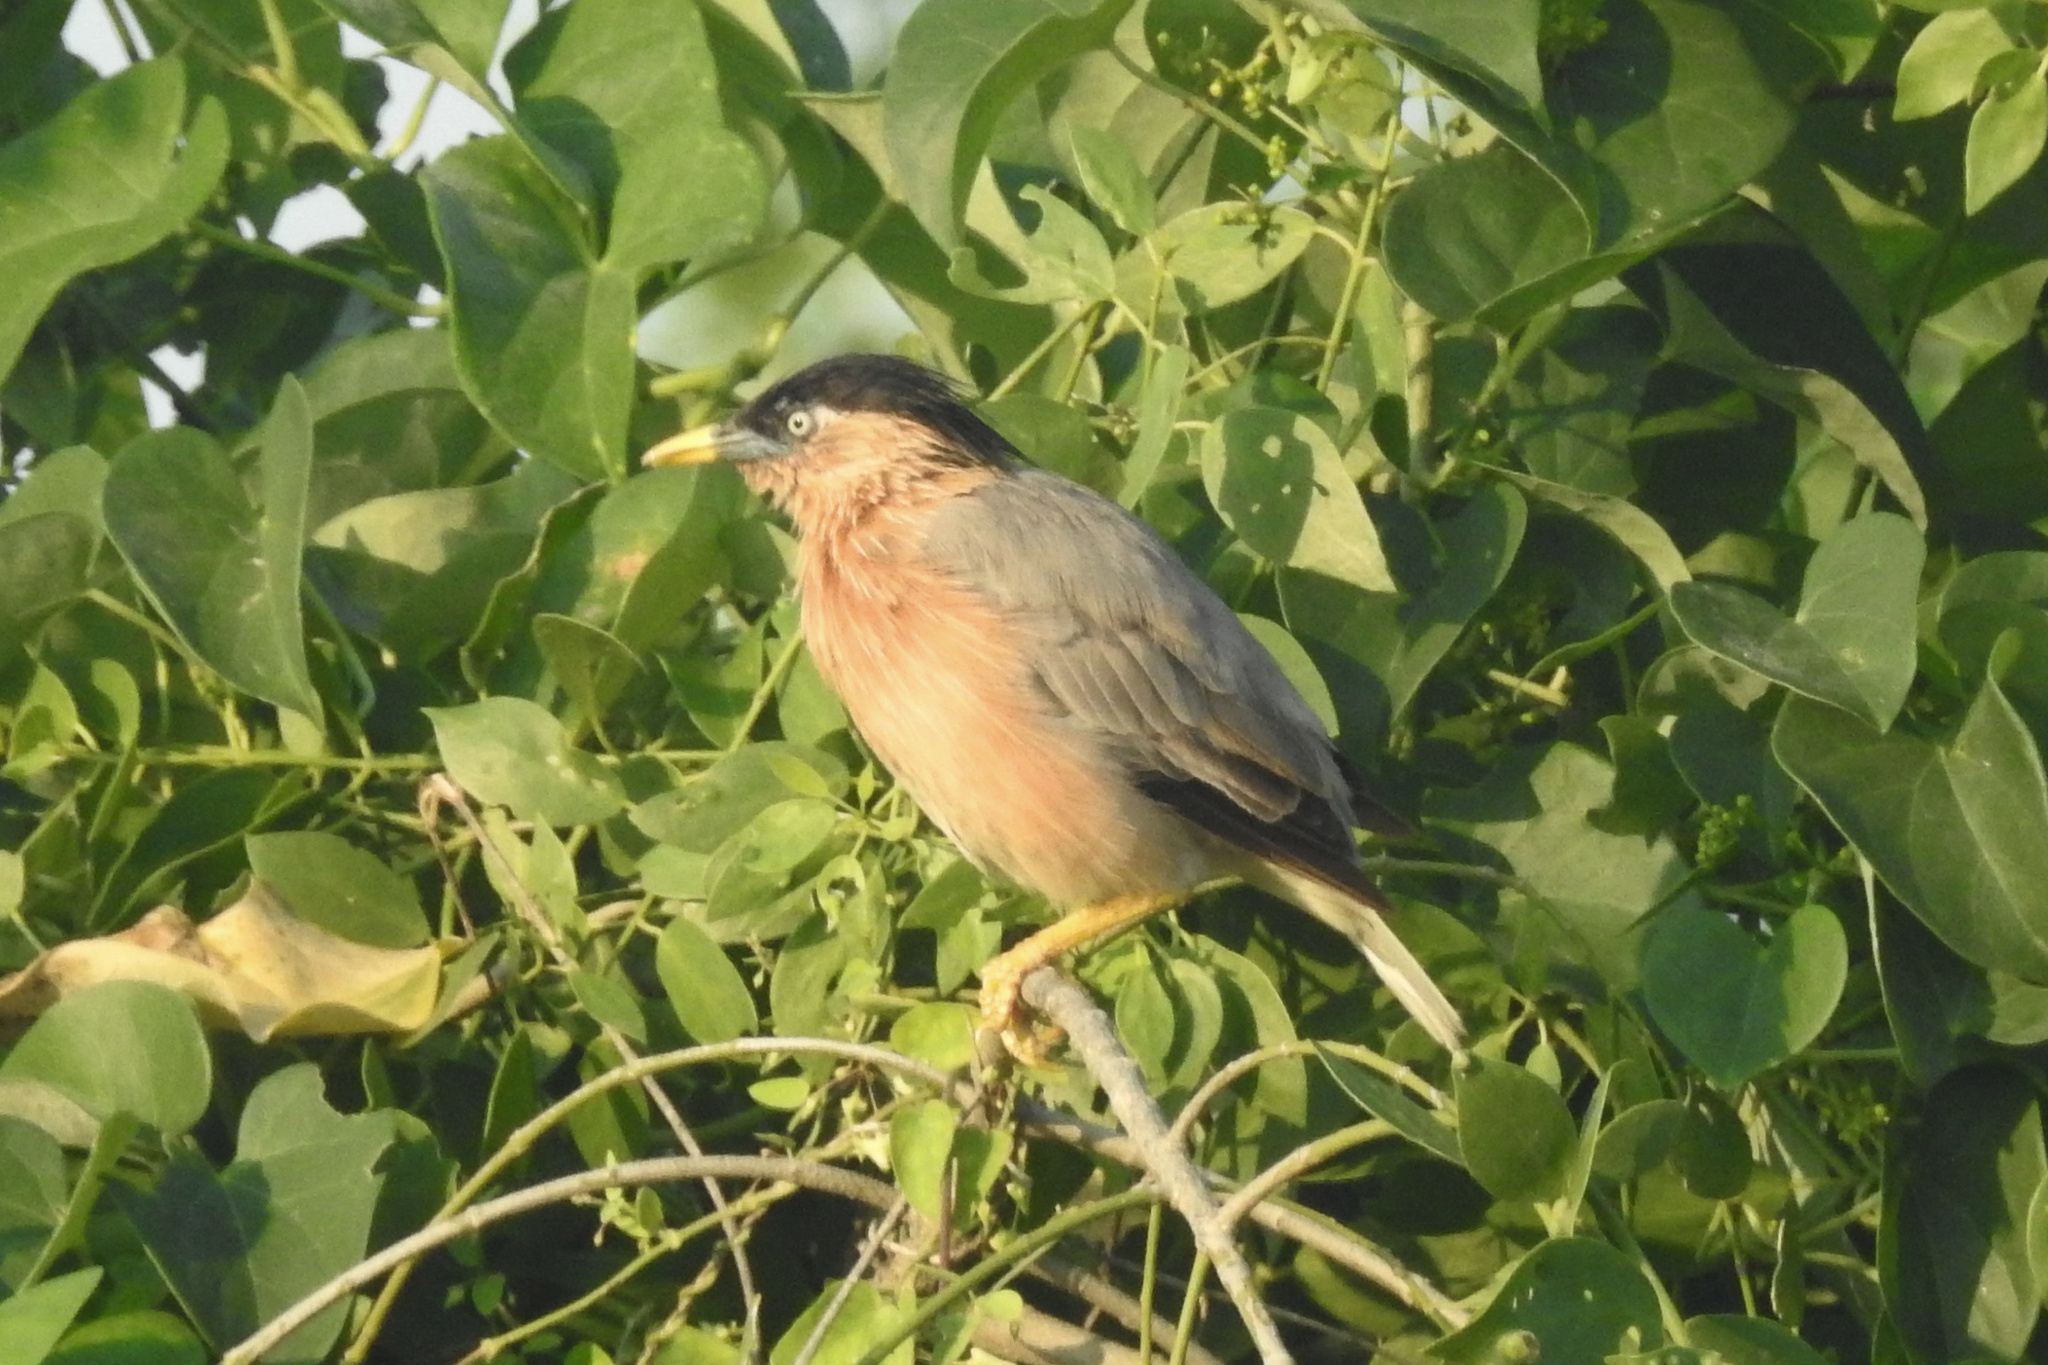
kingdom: Animalia
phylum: Chordata
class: Aves
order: Passeriformes
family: Sturnidae
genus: Sturnia
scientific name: Sturnia pagodarum
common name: Brahminy starling
